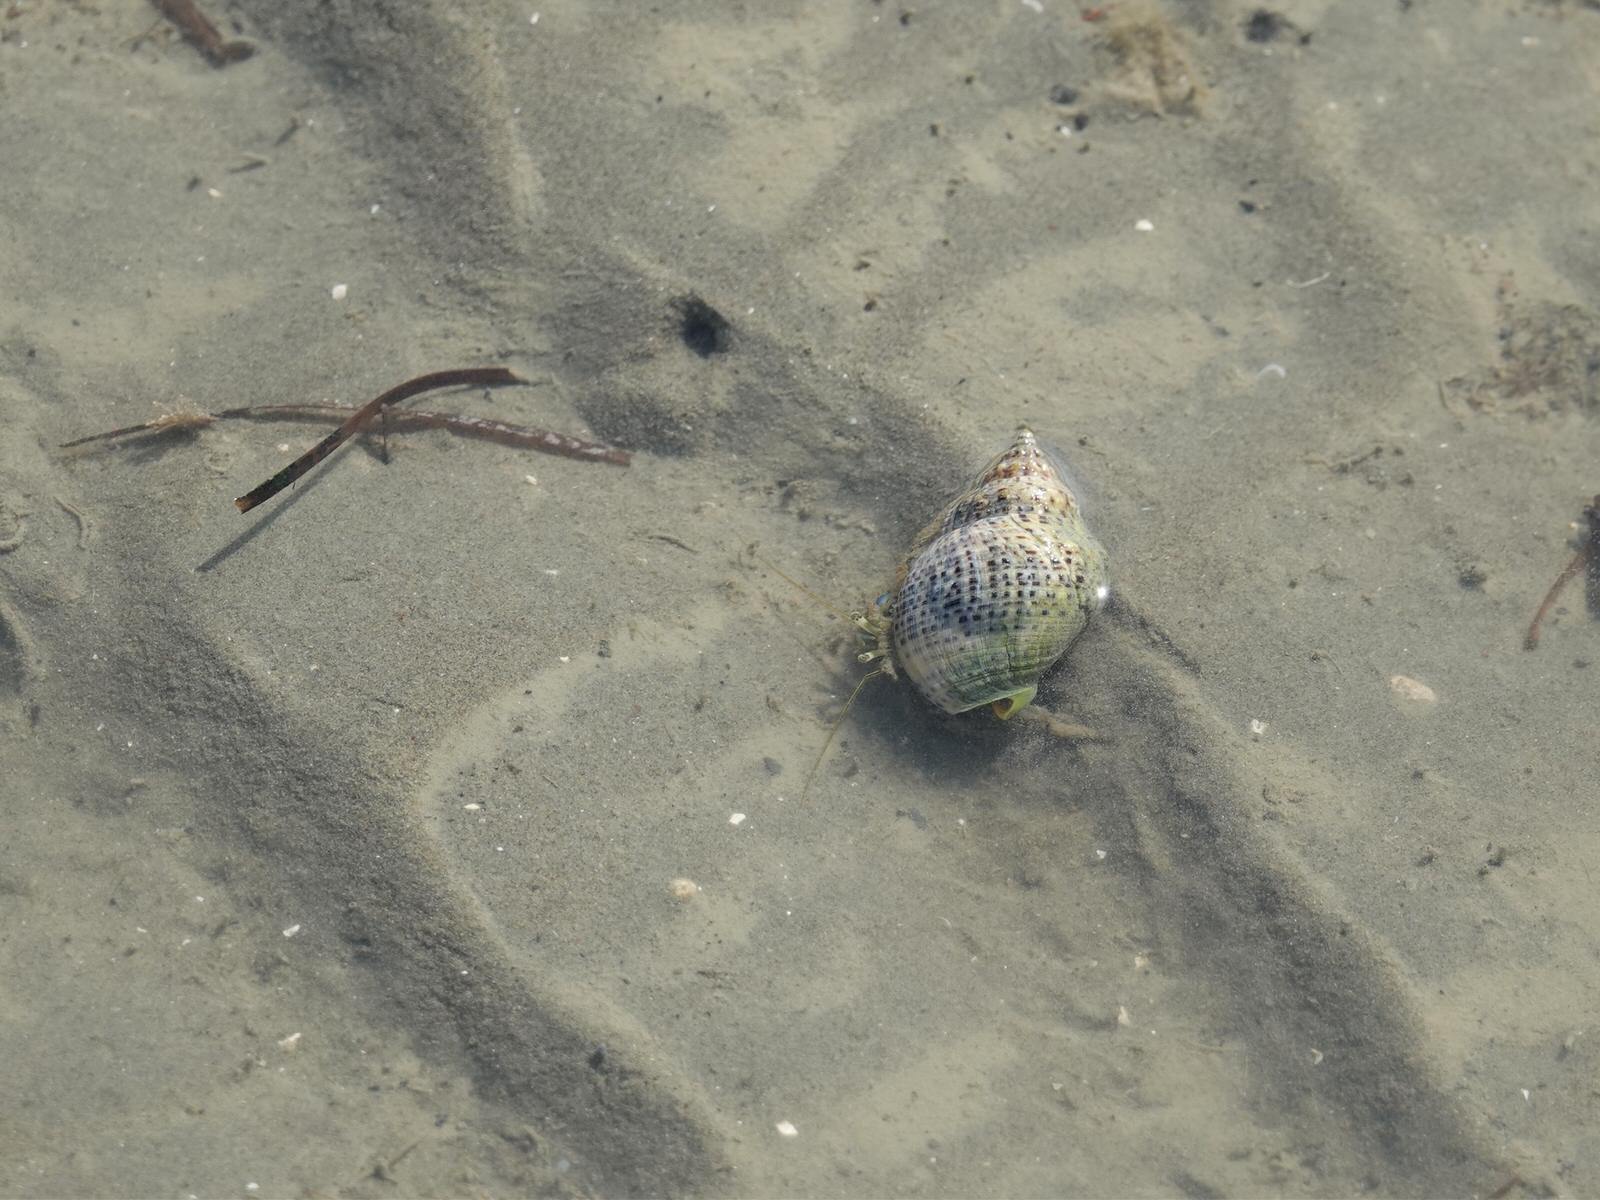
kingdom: Animalia
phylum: Arthropoda
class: Malacostraca
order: Decapoda
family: Paguridae
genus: Pagurus
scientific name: Pagurus novizealandiae
